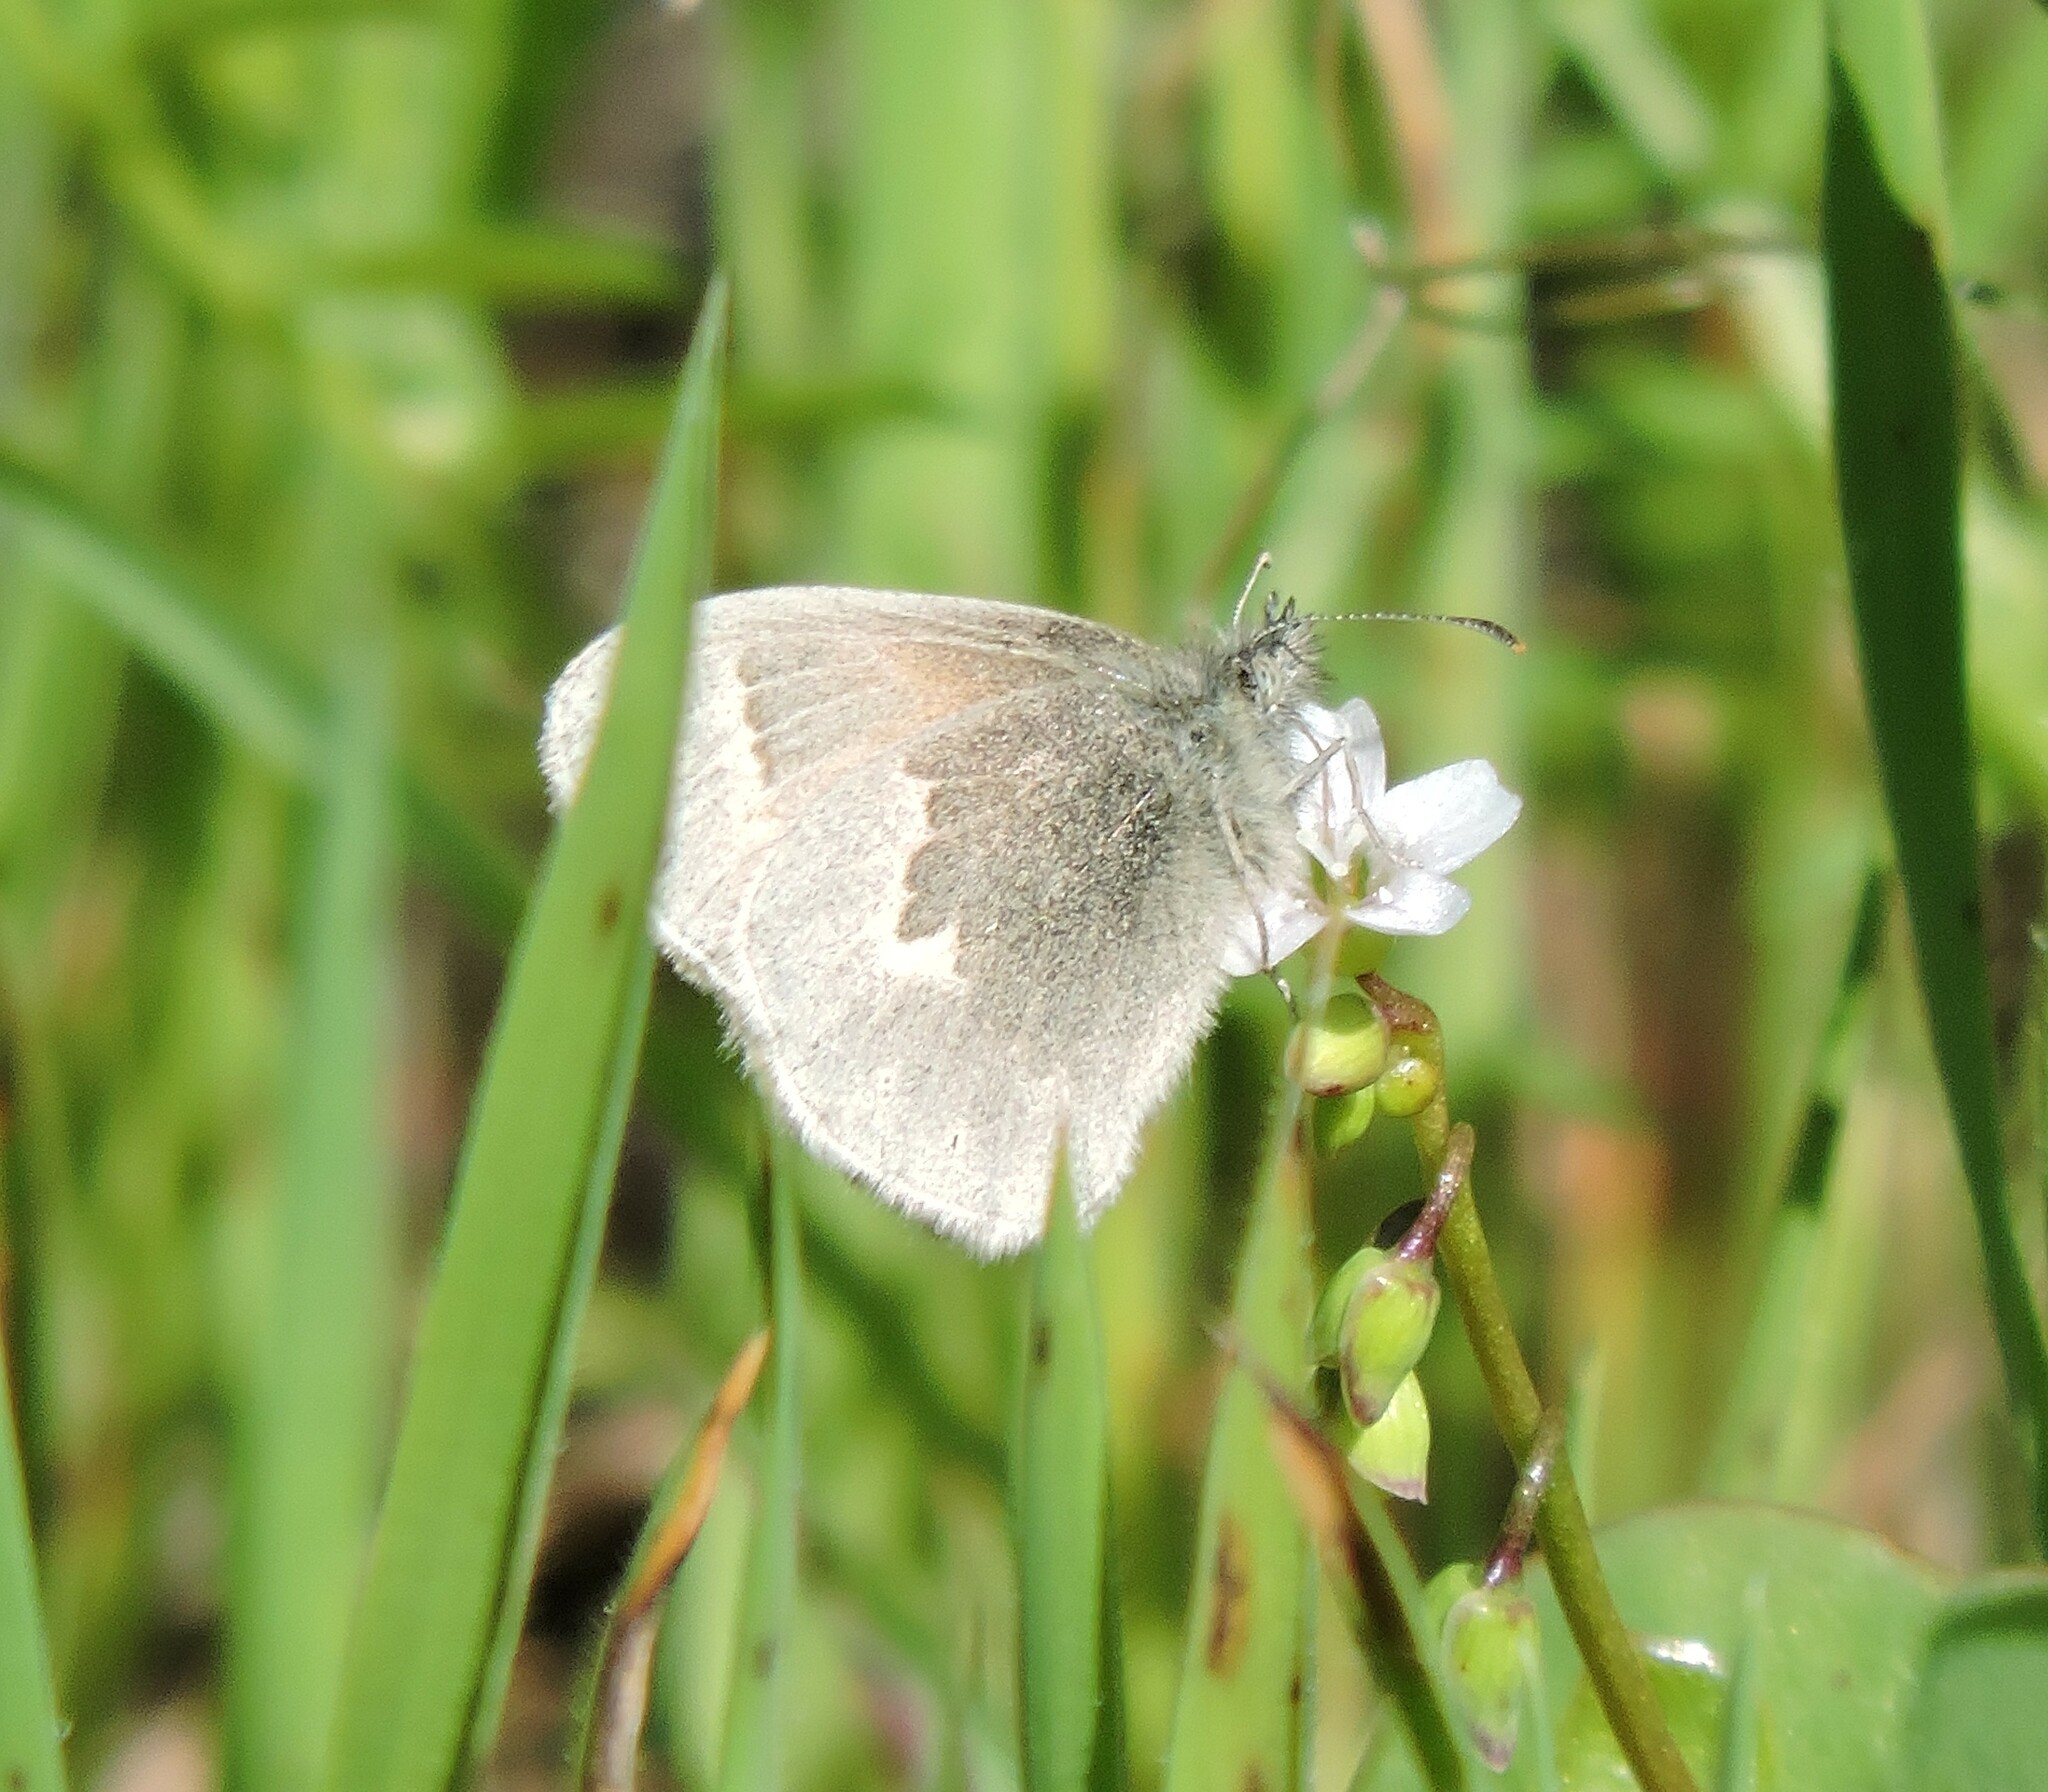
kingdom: Animalia
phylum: Arthropoda
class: Insecta
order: Lepidoptera
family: Nymphalidae
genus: Coenonympha
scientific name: Coenonympha california
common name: Common ringlet
